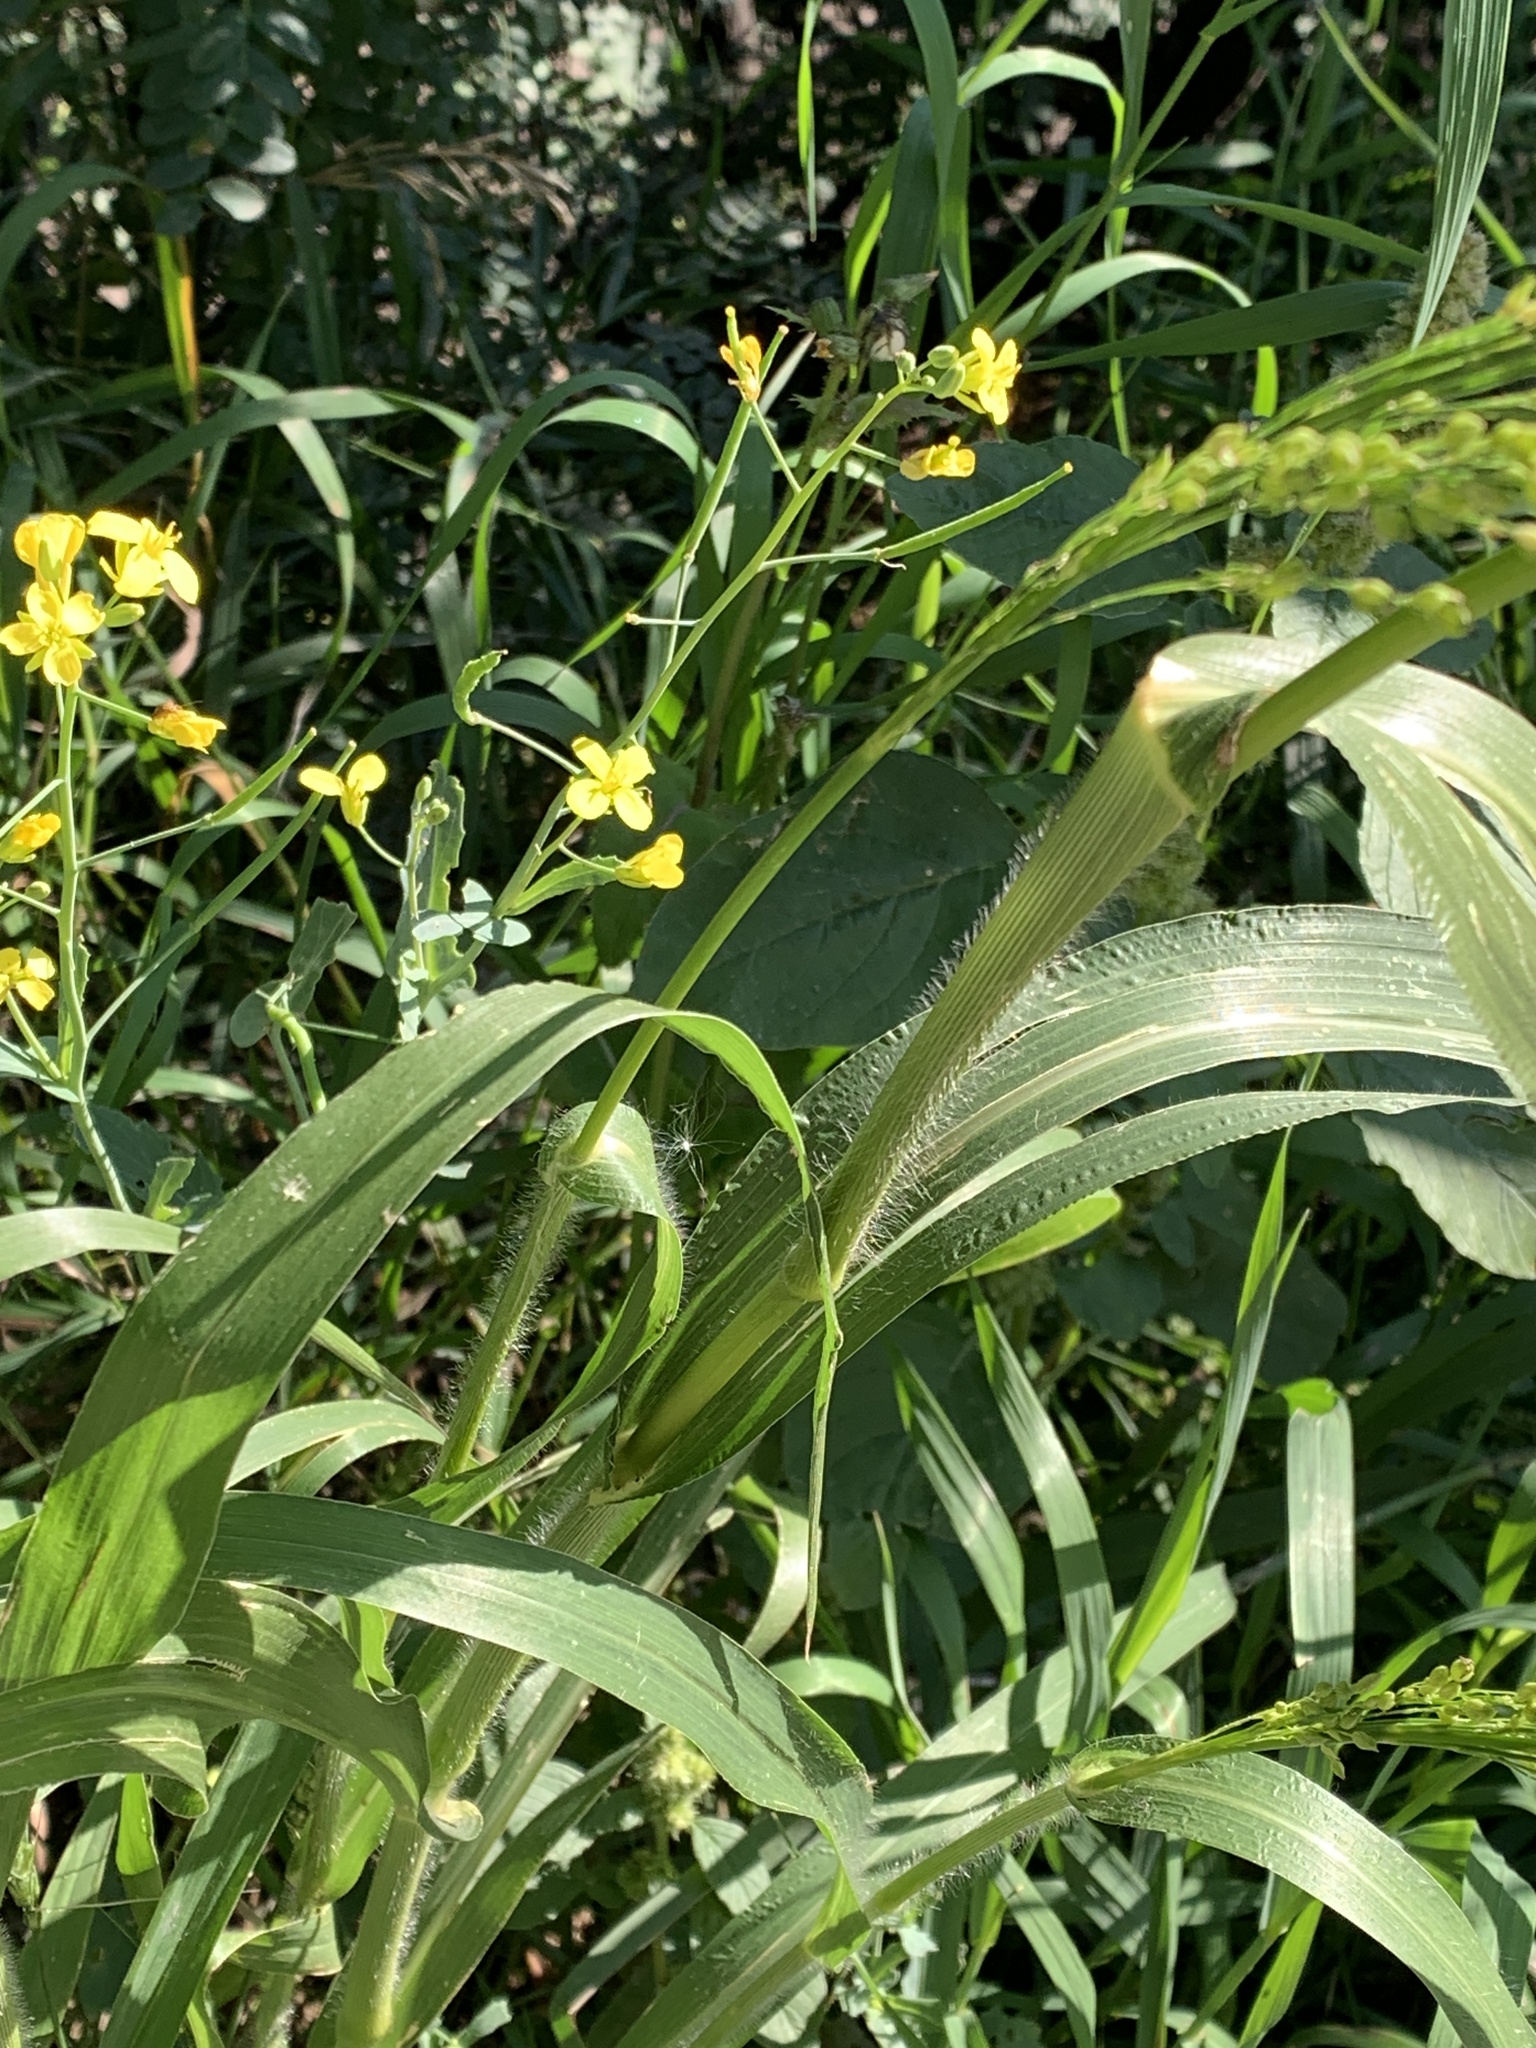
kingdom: Plantae
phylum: Tracheophyta
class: Liliopsida
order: Poales
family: Poaceae
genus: Panicum
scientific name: Panicum miliaceum
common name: Common millet
